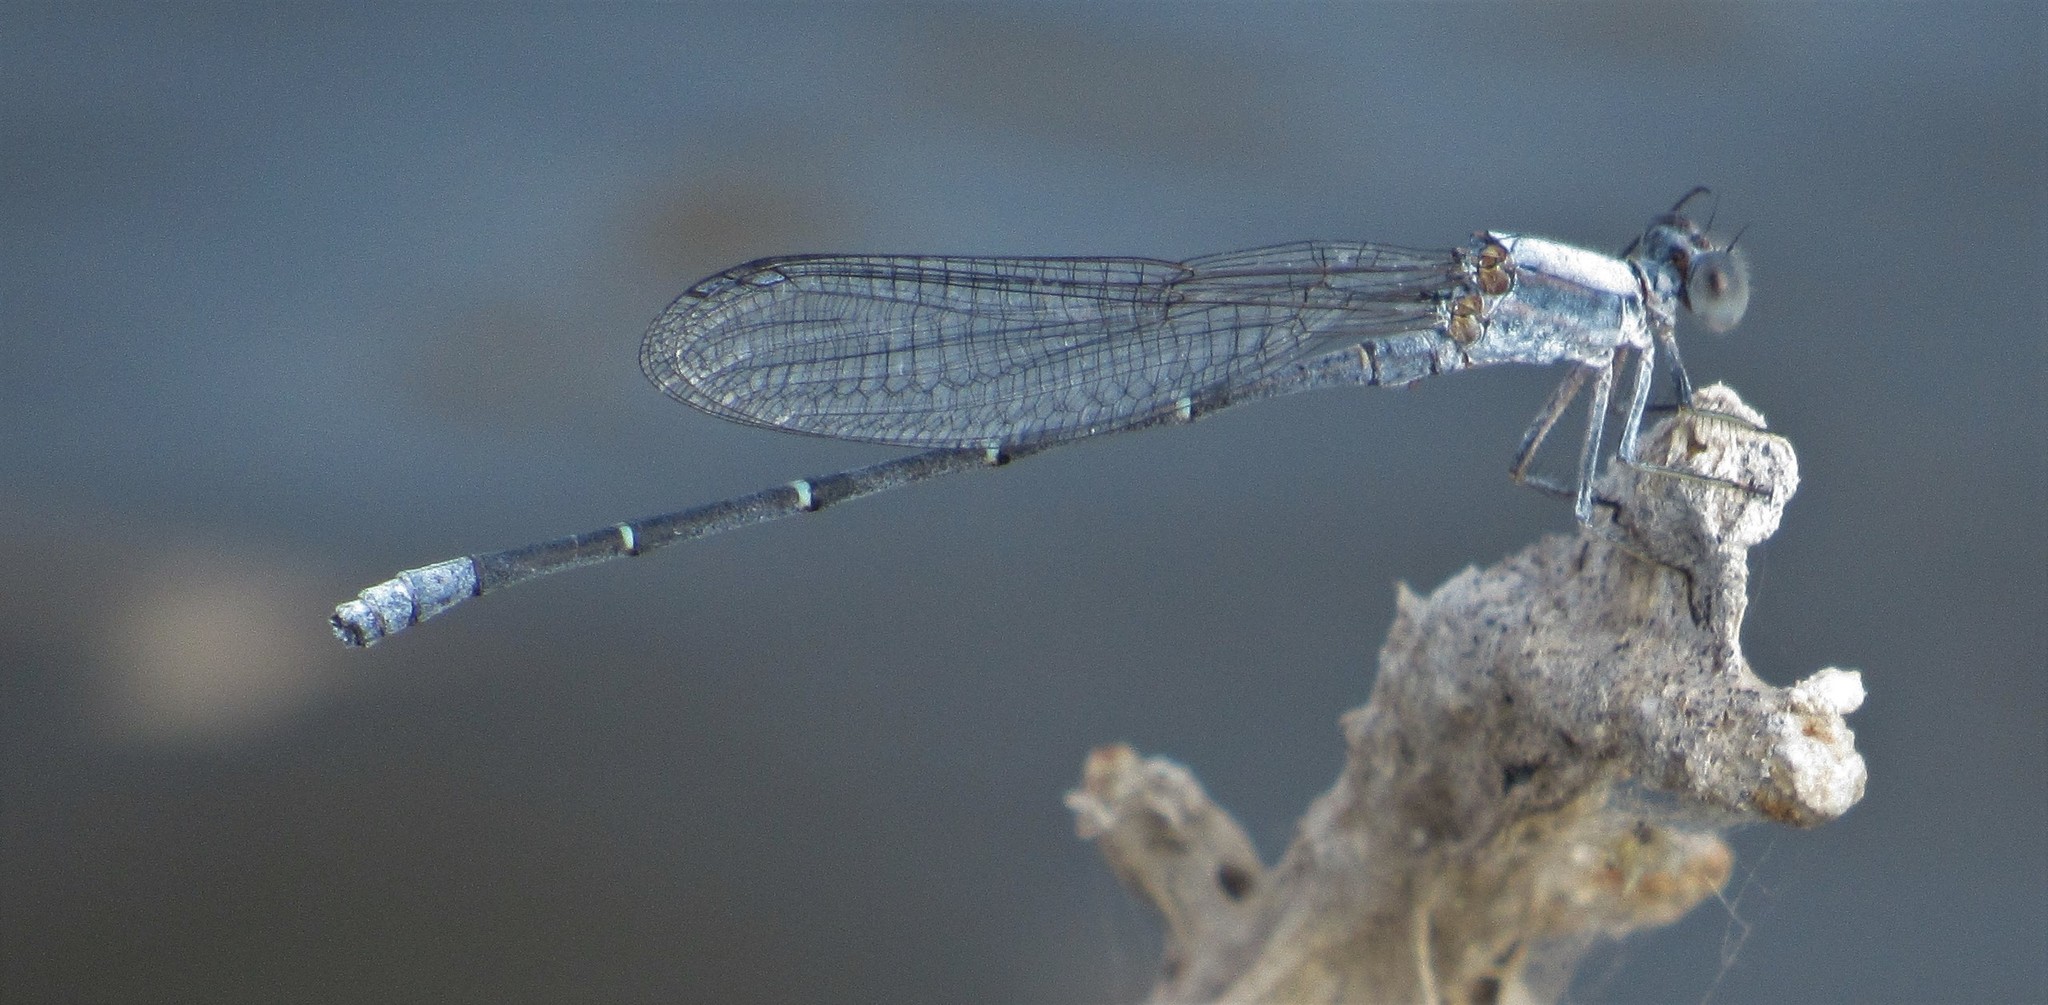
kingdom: Animalia
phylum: Arthropoda
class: Insecta
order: Odonata
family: Coenagrionidae
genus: Argia
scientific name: Argia moesta
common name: Powdered dancer
